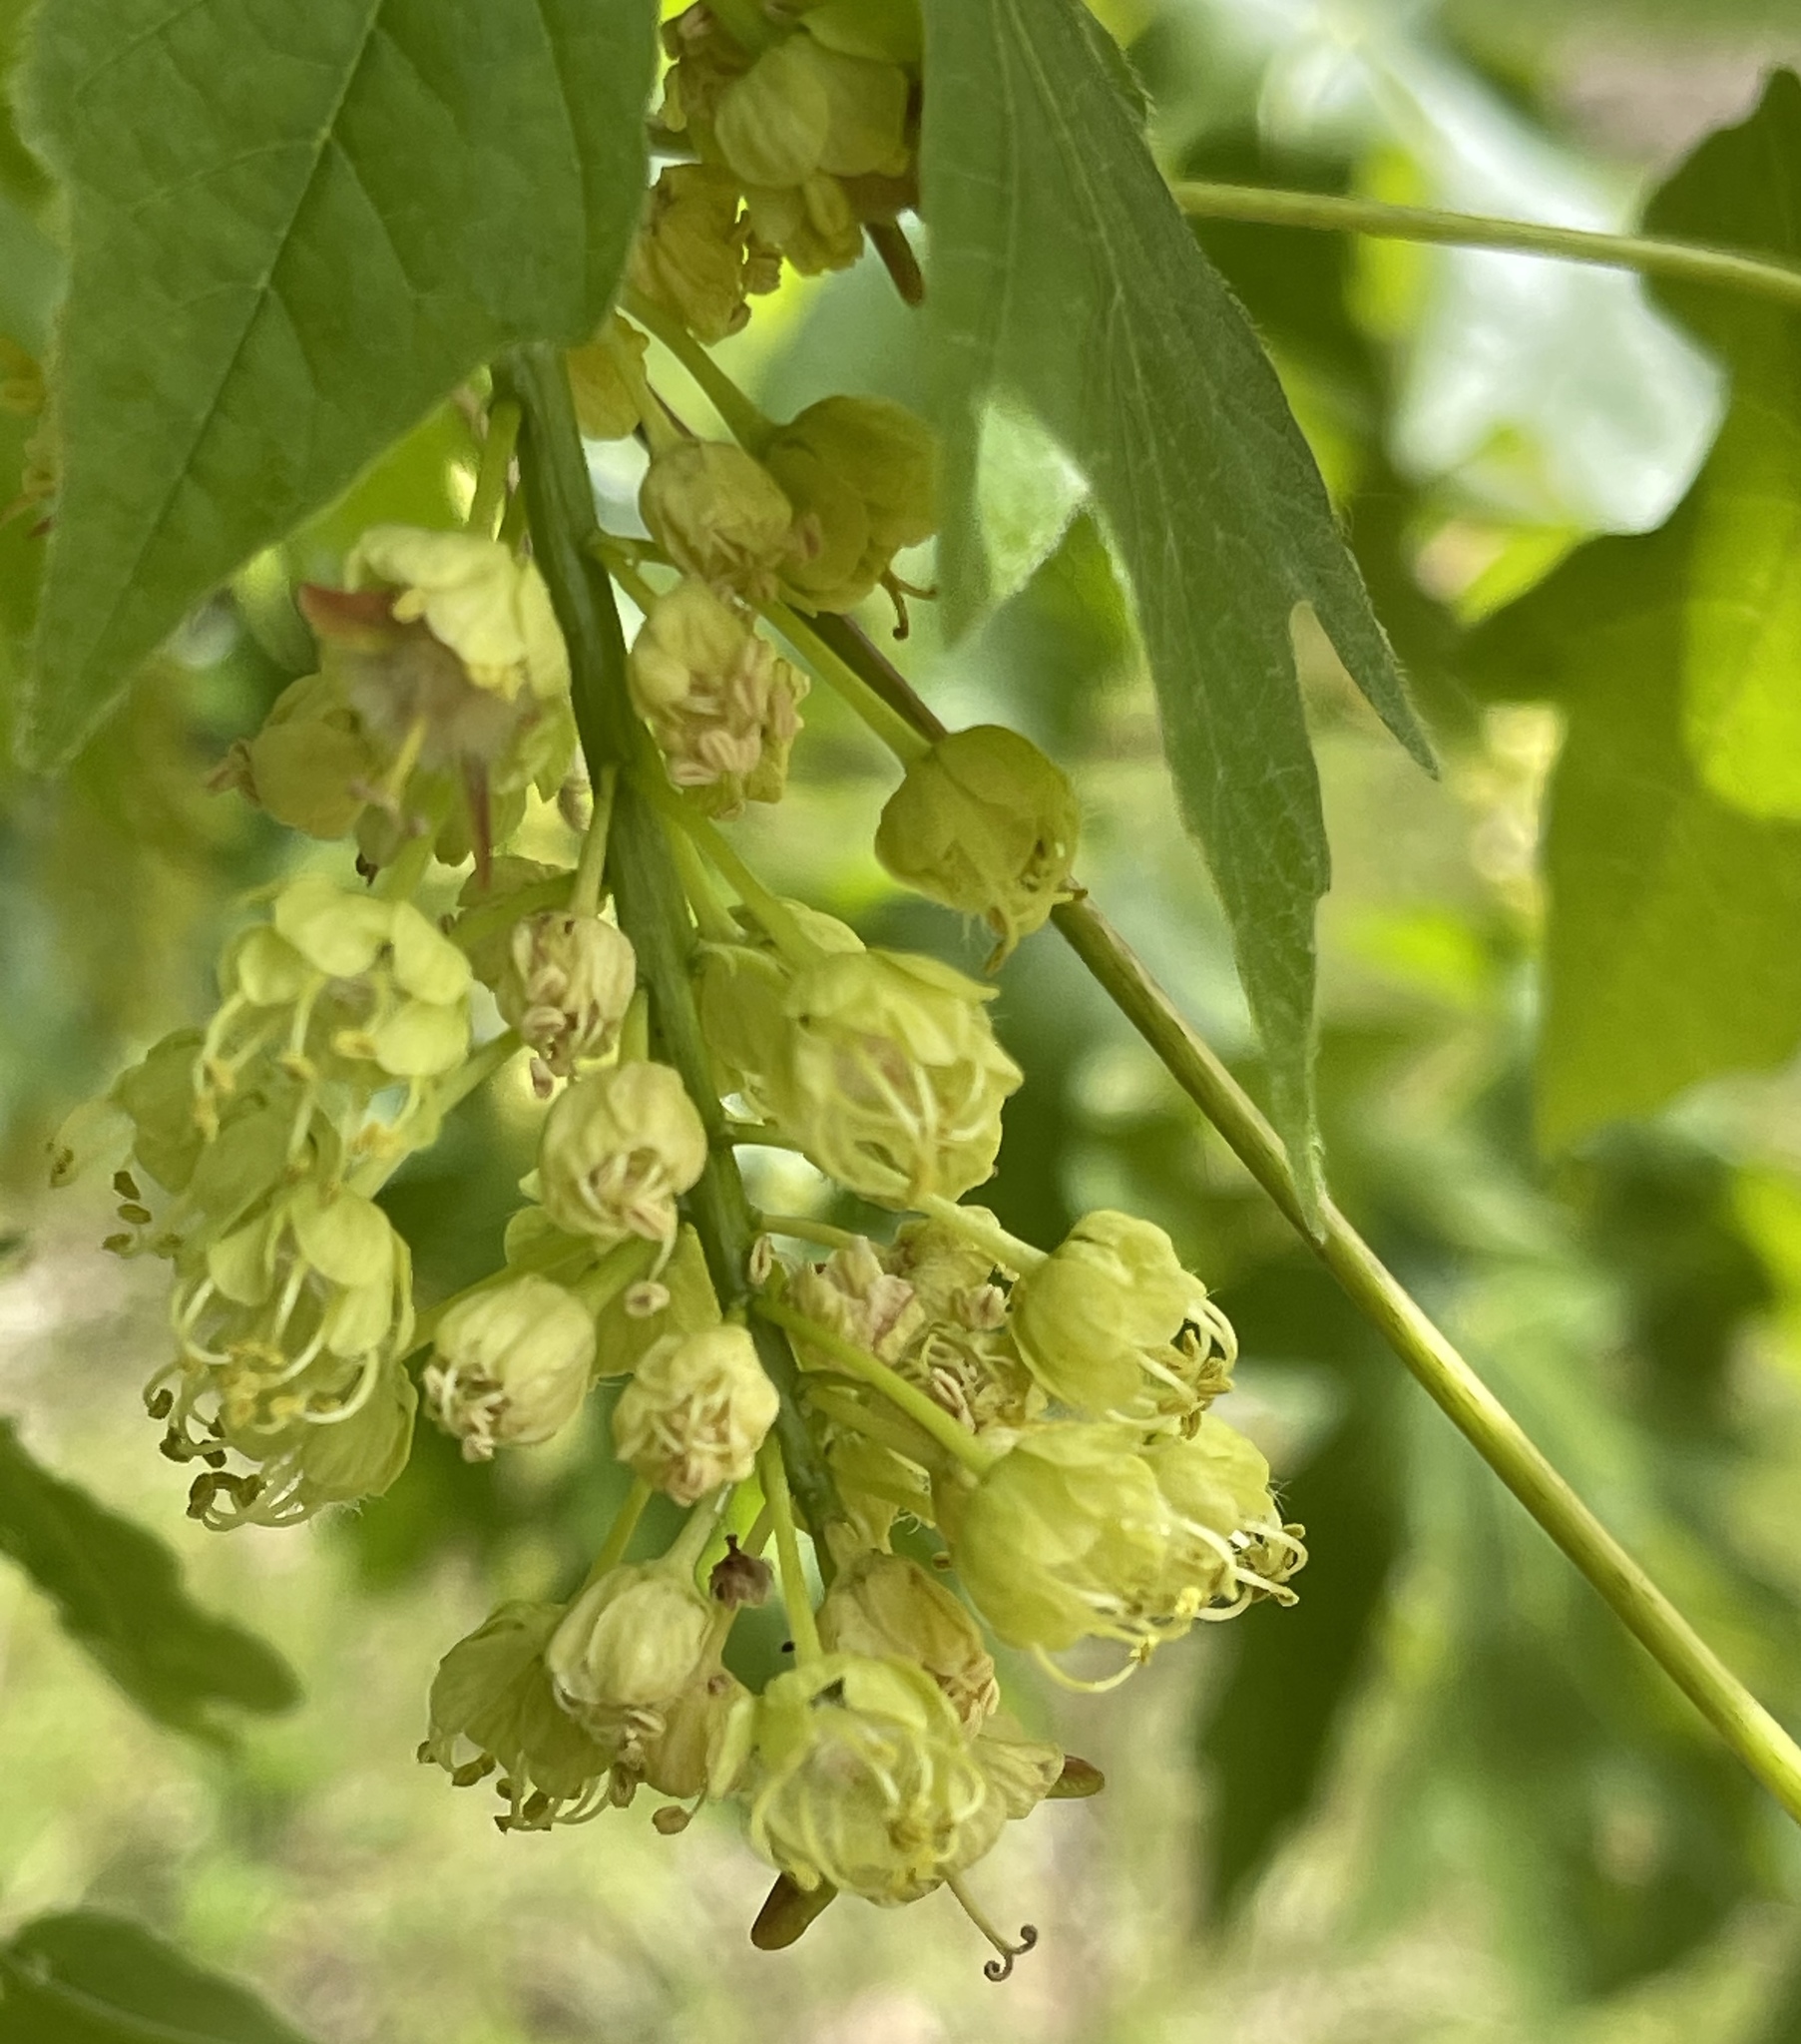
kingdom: Plantae
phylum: Tracheophyta
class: Magnoliopsida
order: Sapindales
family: Sapindaceae
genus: Acer
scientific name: Acer macrophyllum
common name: Oregon maple
